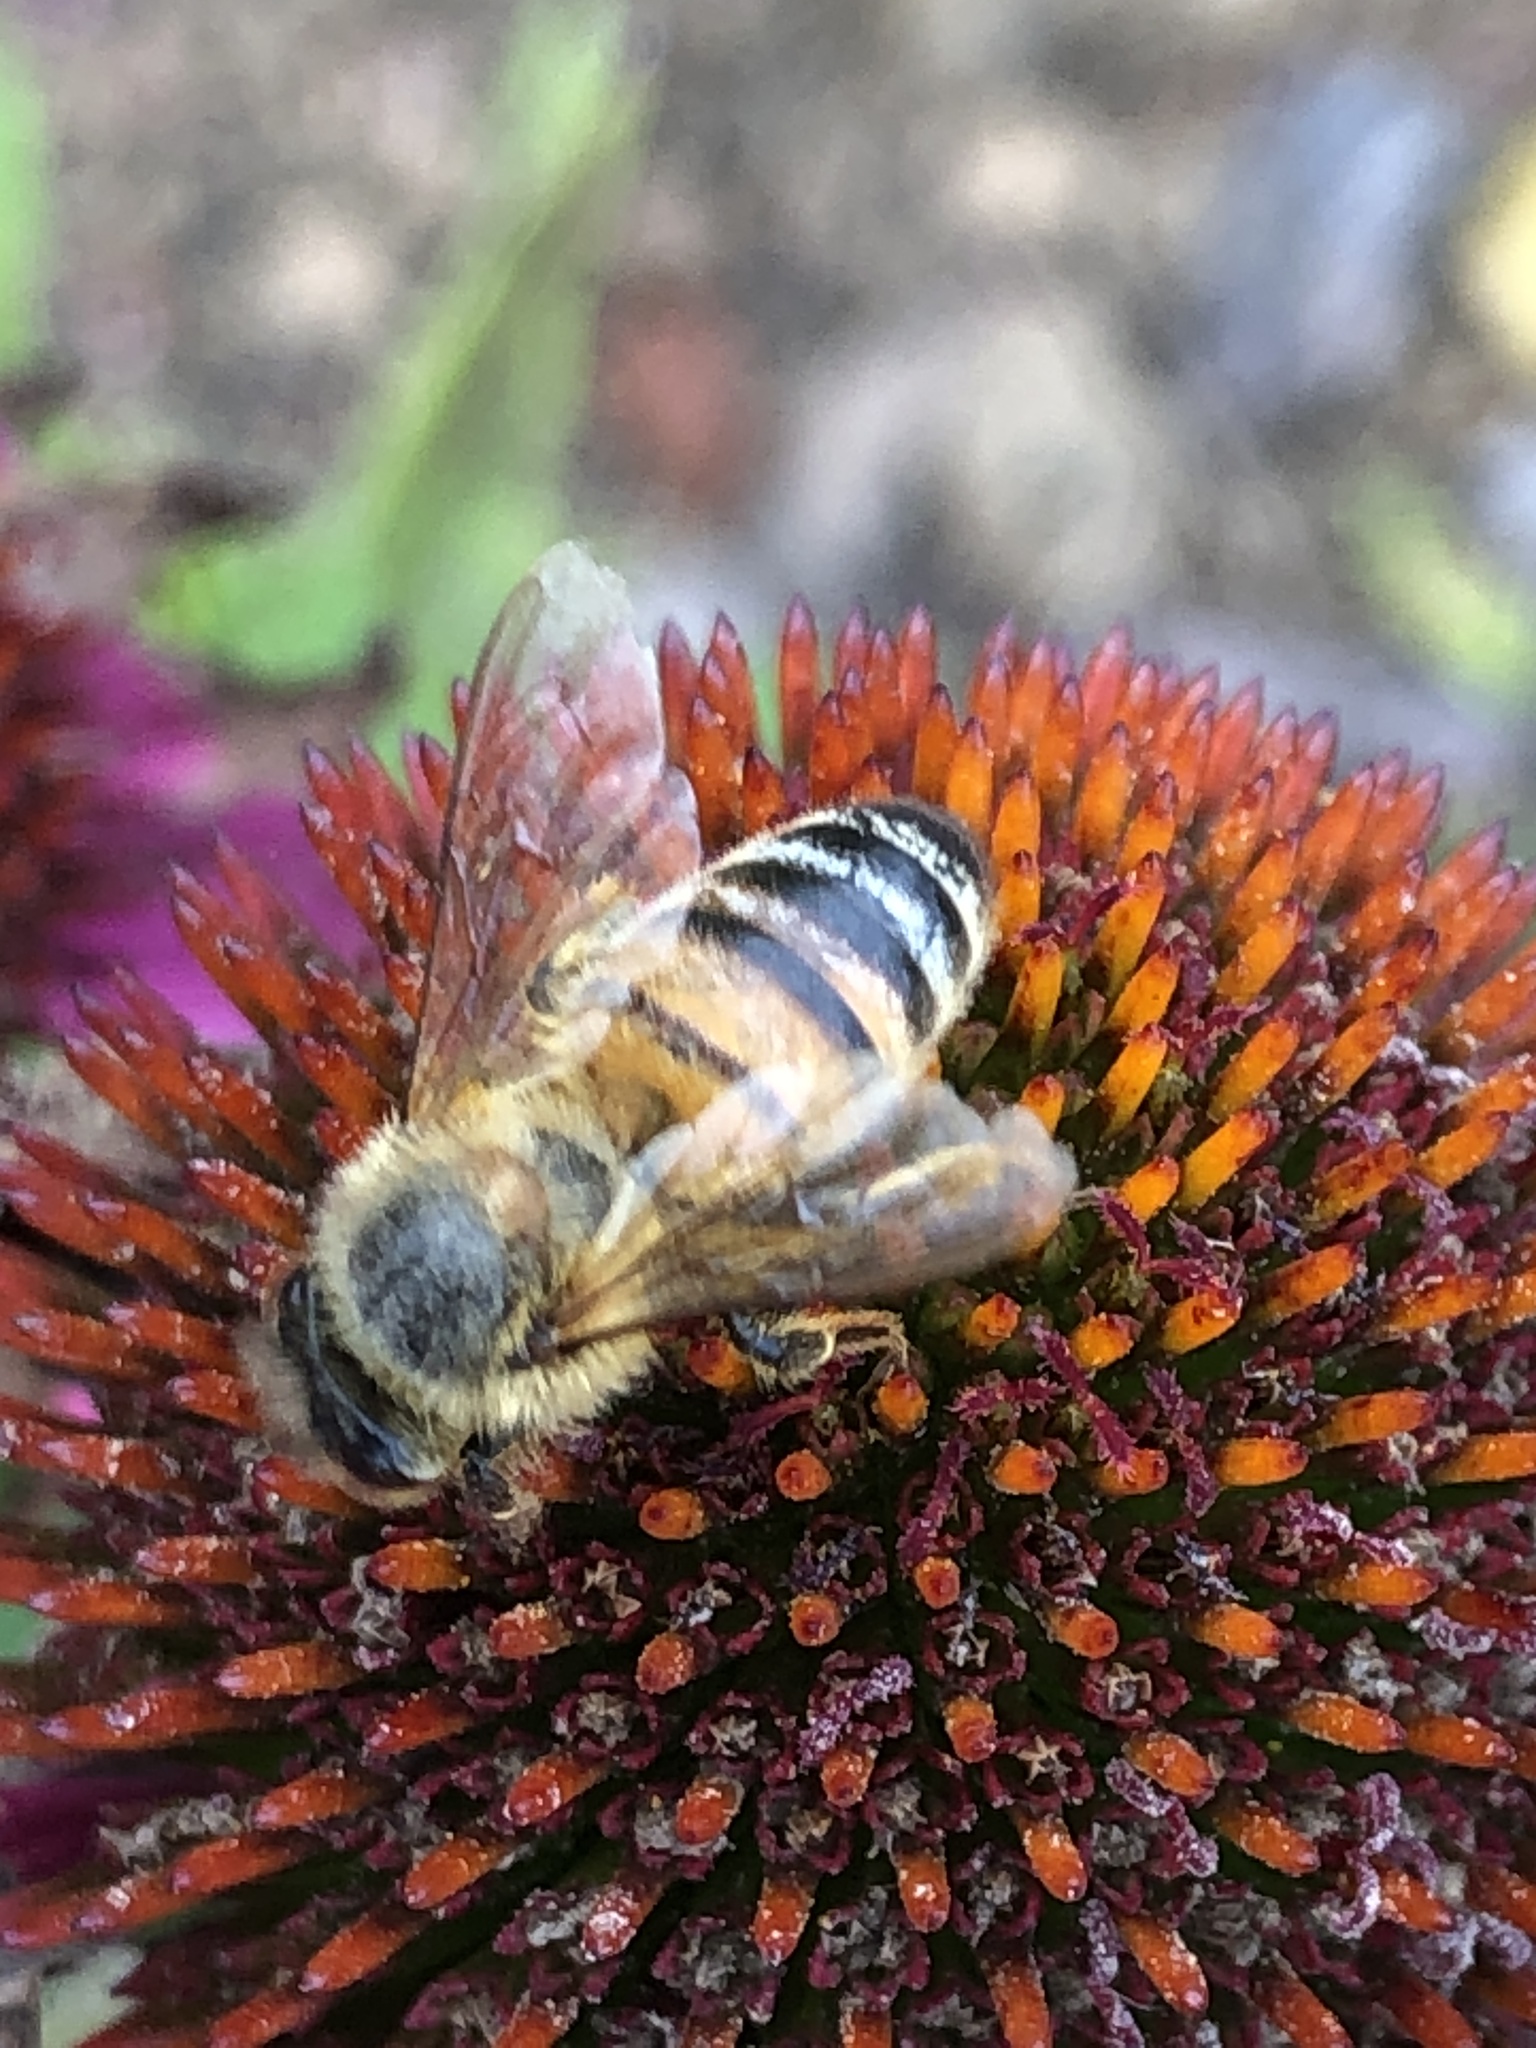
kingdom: Animalia
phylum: Arthropoda
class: Insecta
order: Hymenoptera
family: Apidae
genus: Apis
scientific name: Apis mellifera
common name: Honey bee
